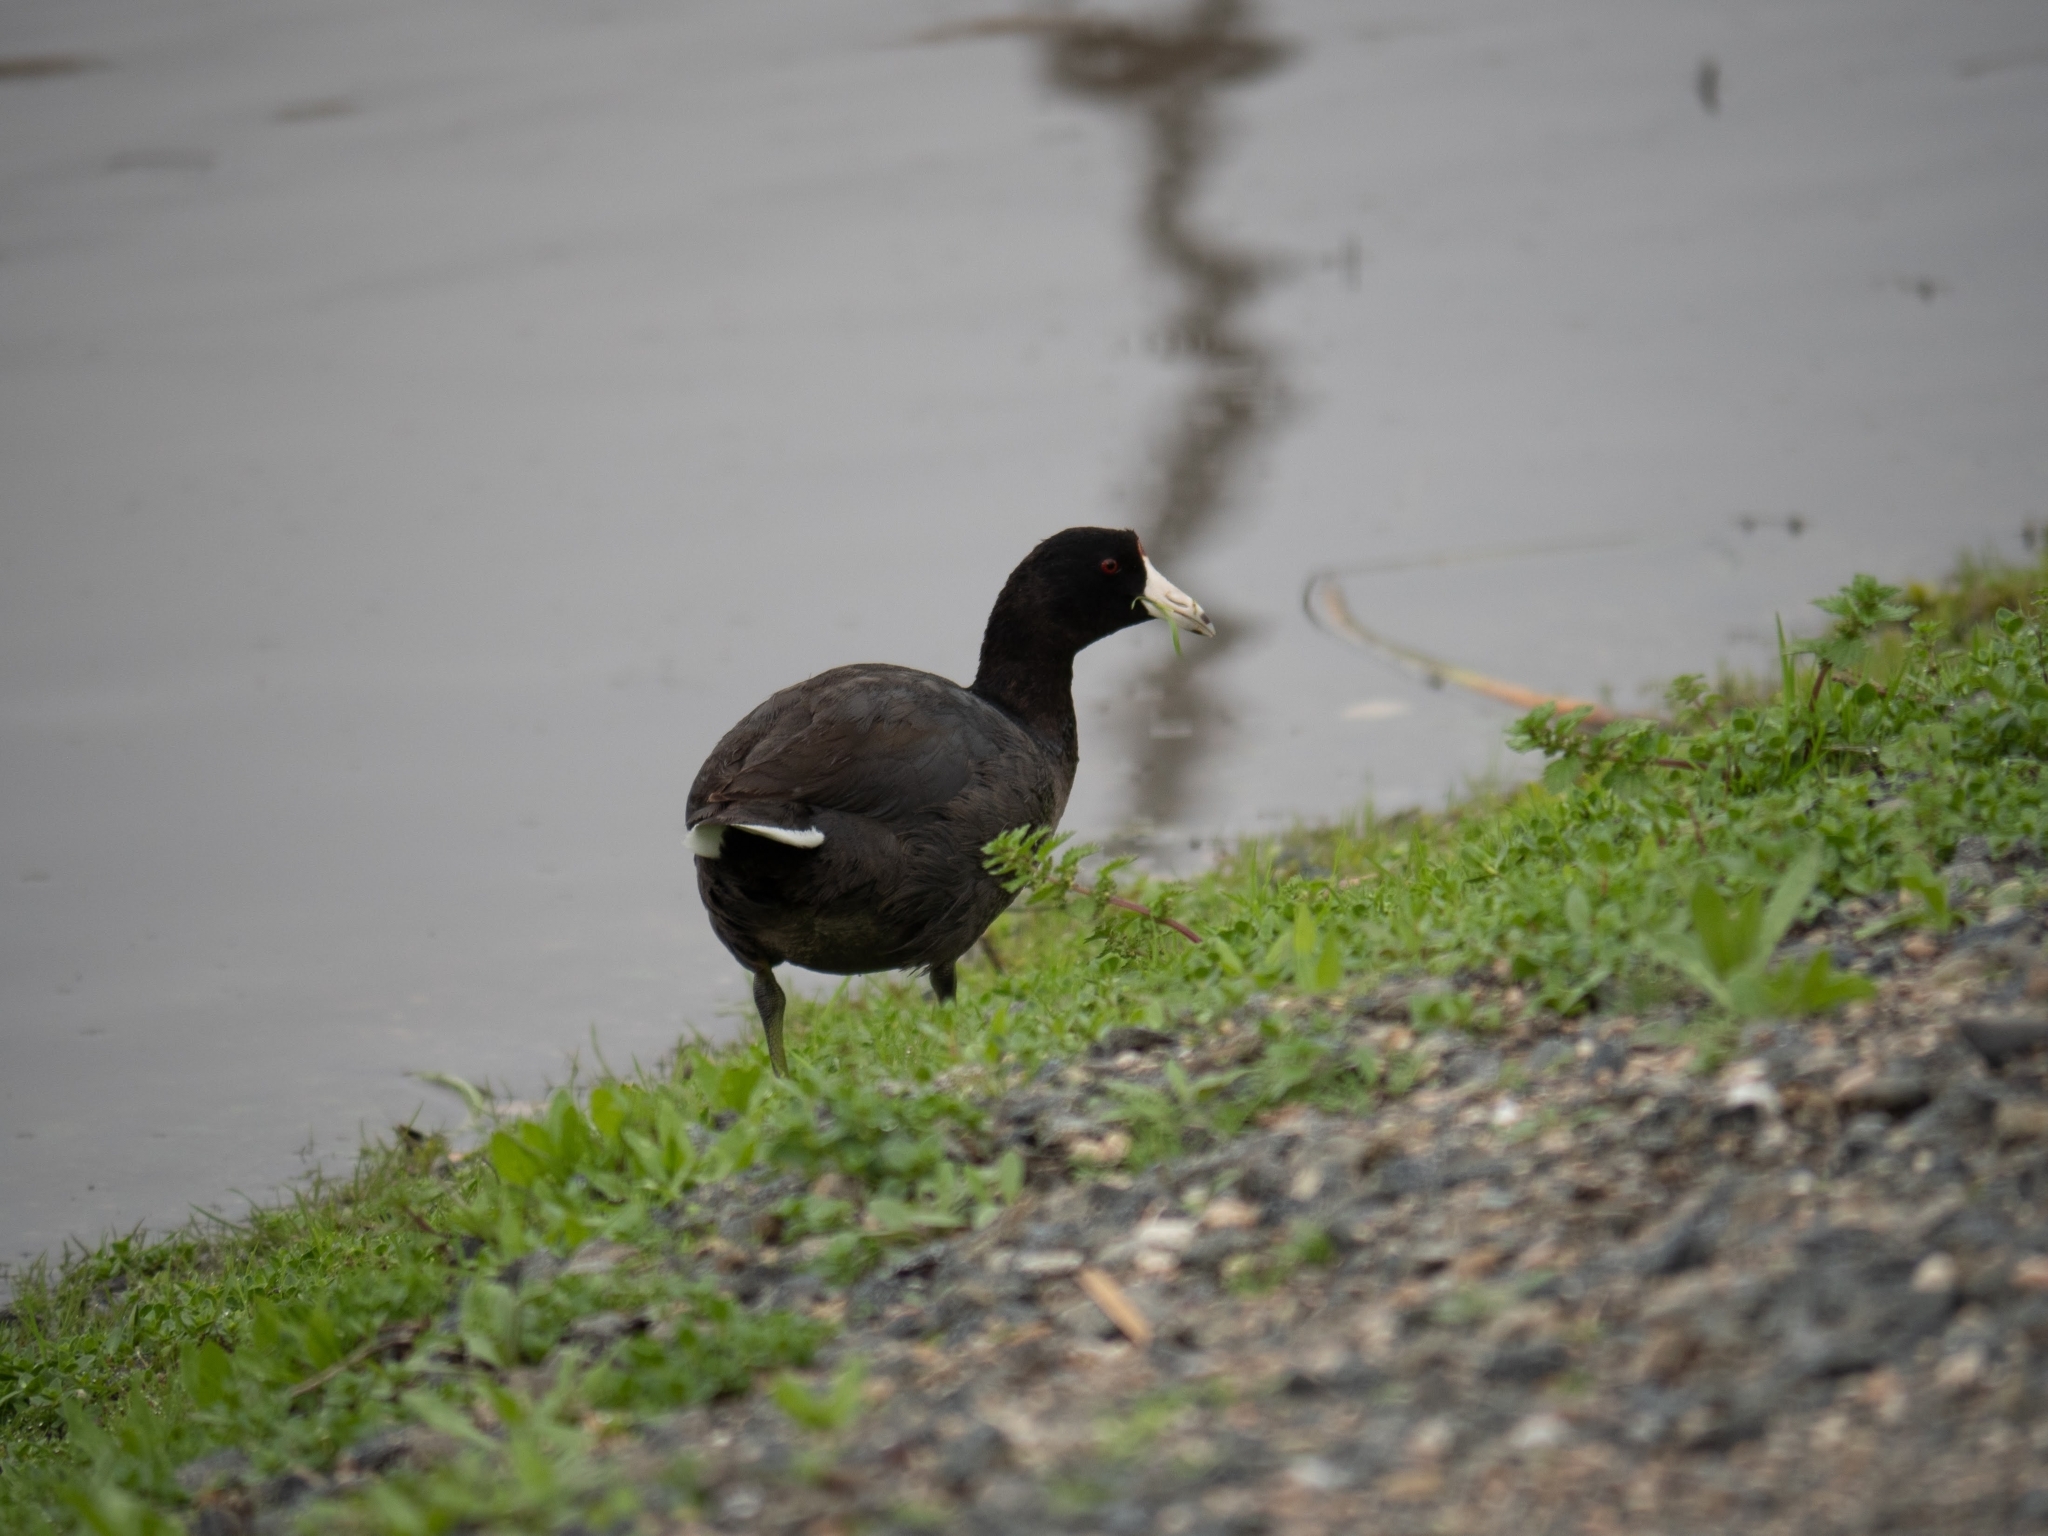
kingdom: Animalia
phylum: Chordata
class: Aves
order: Gruiformes
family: Rallidae
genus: Fulica
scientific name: Fulica americana
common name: American coot
